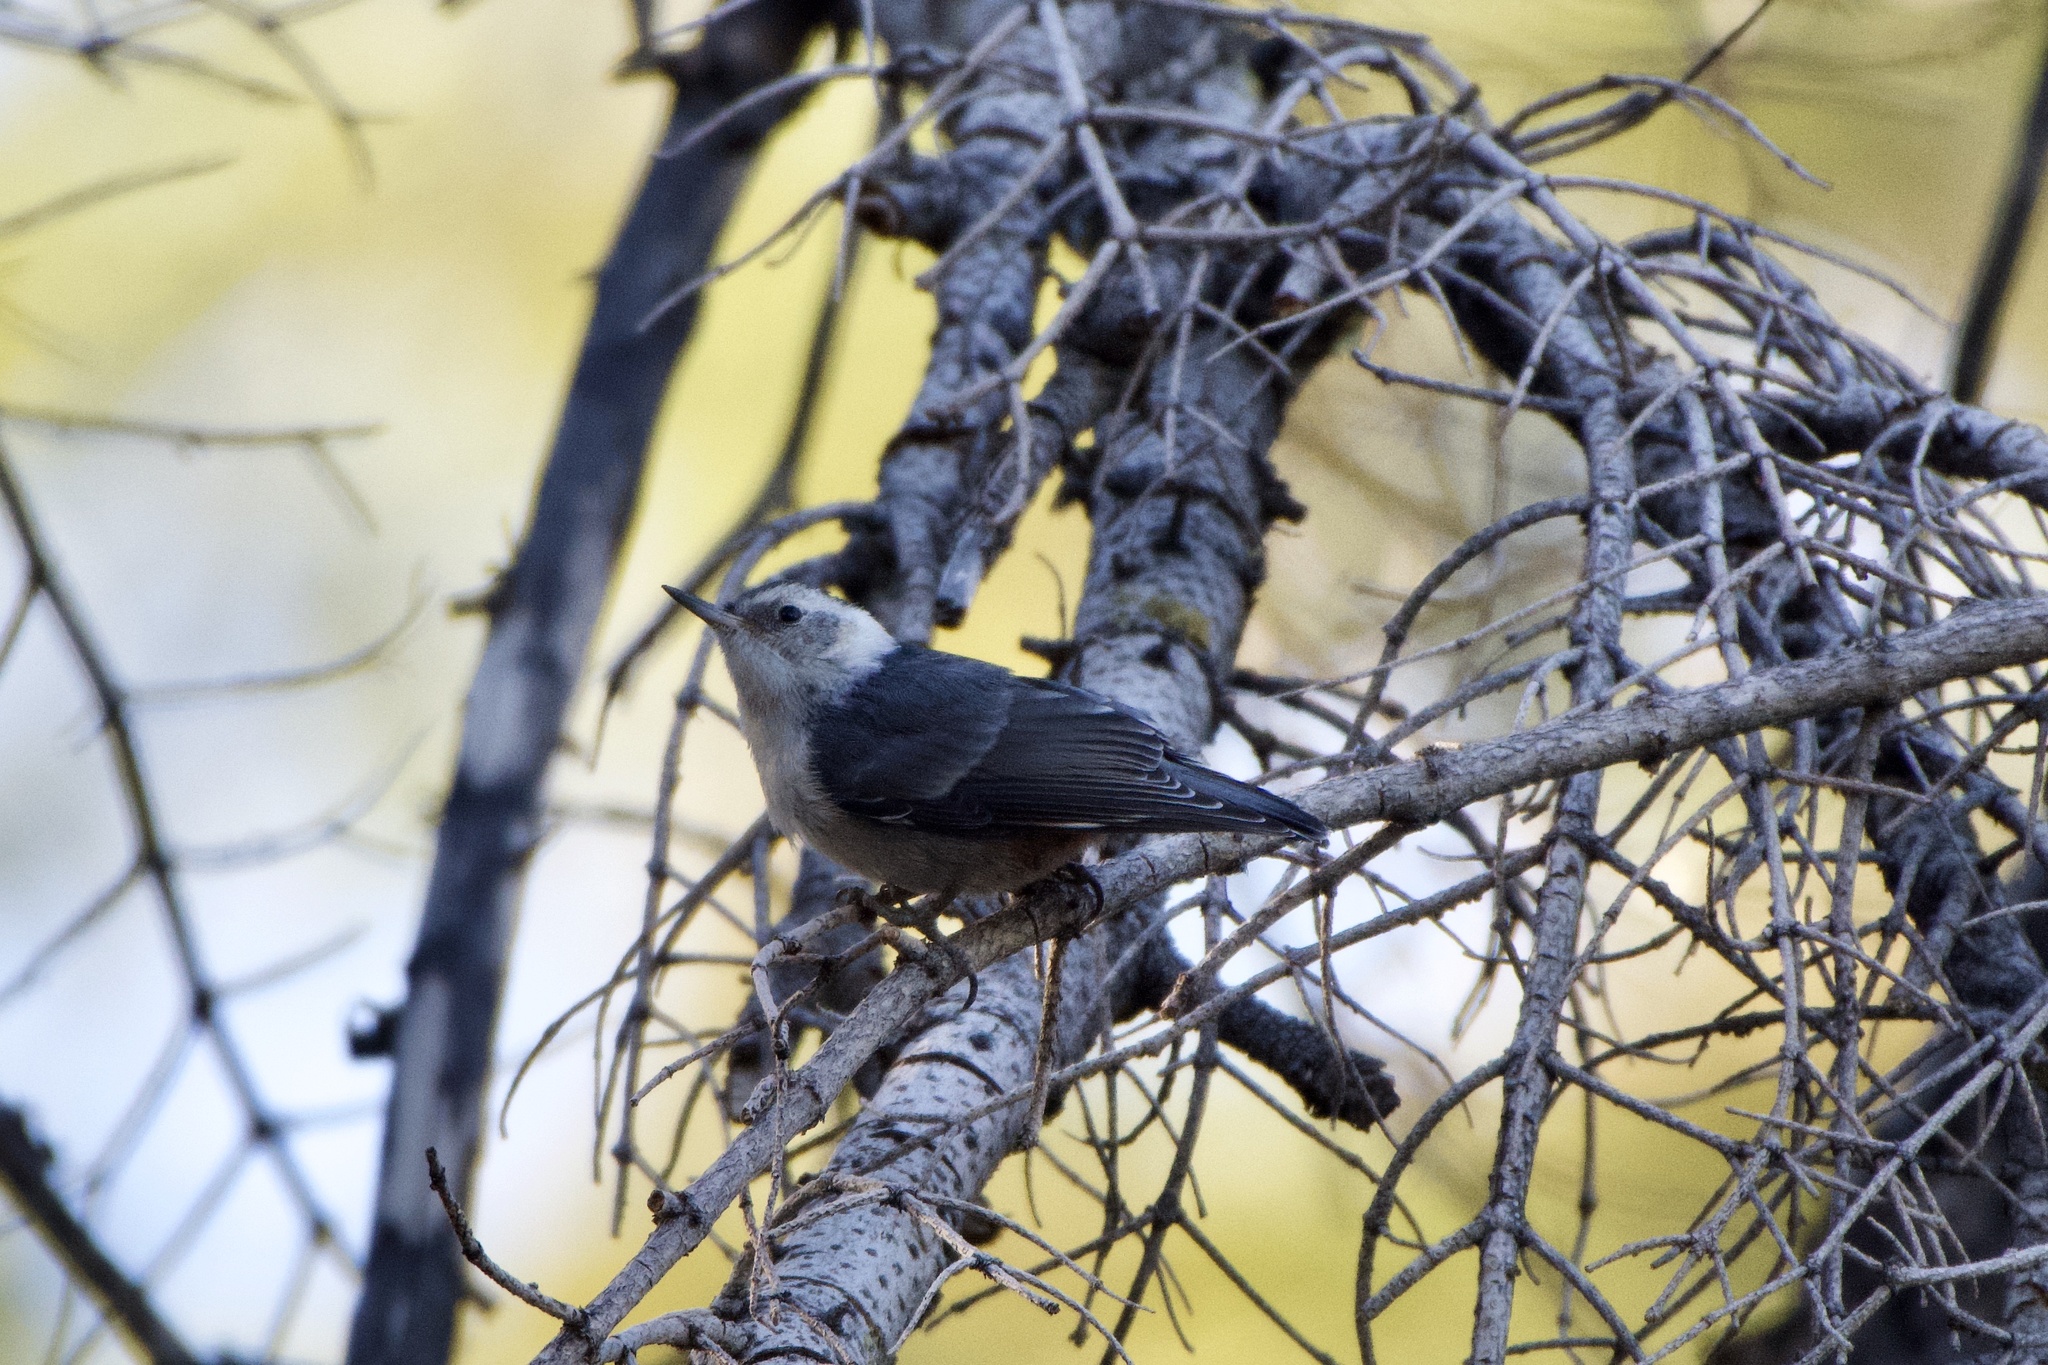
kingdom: Animalia
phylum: Chordata
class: Aves
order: Passeriformes
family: Sittidae
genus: Sitta
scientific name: Sitta carolinensis
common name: White-breasted nuthatch
